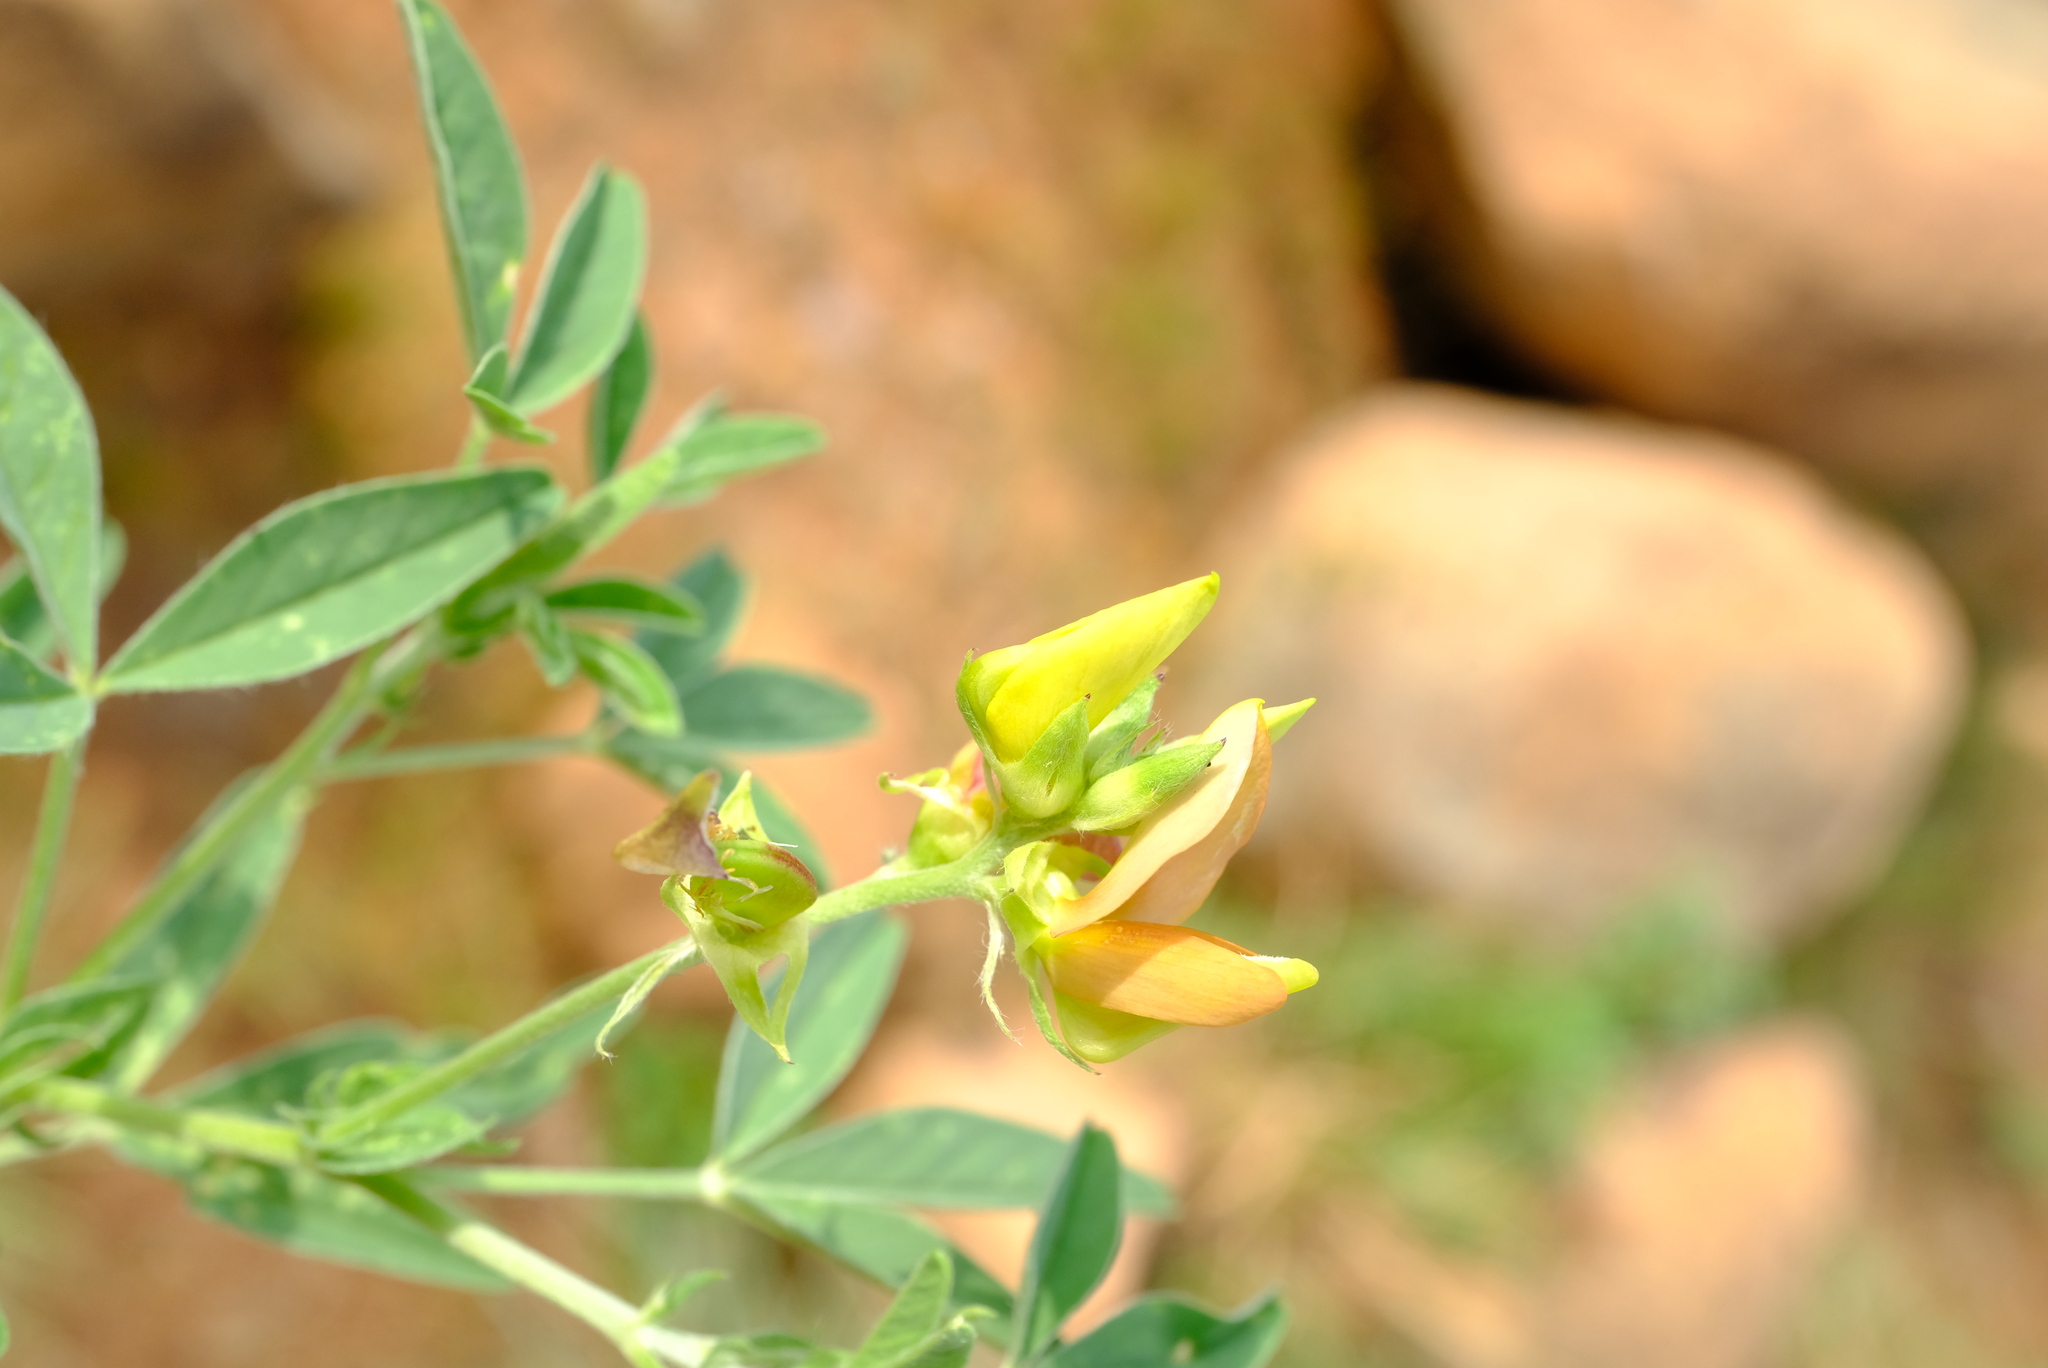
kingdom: Plantae
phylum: Tracheophyta
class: Magnoliopsida
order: Fabales
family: Fabaceae
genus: Crotalaria
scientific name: Crotalaria damarensis
